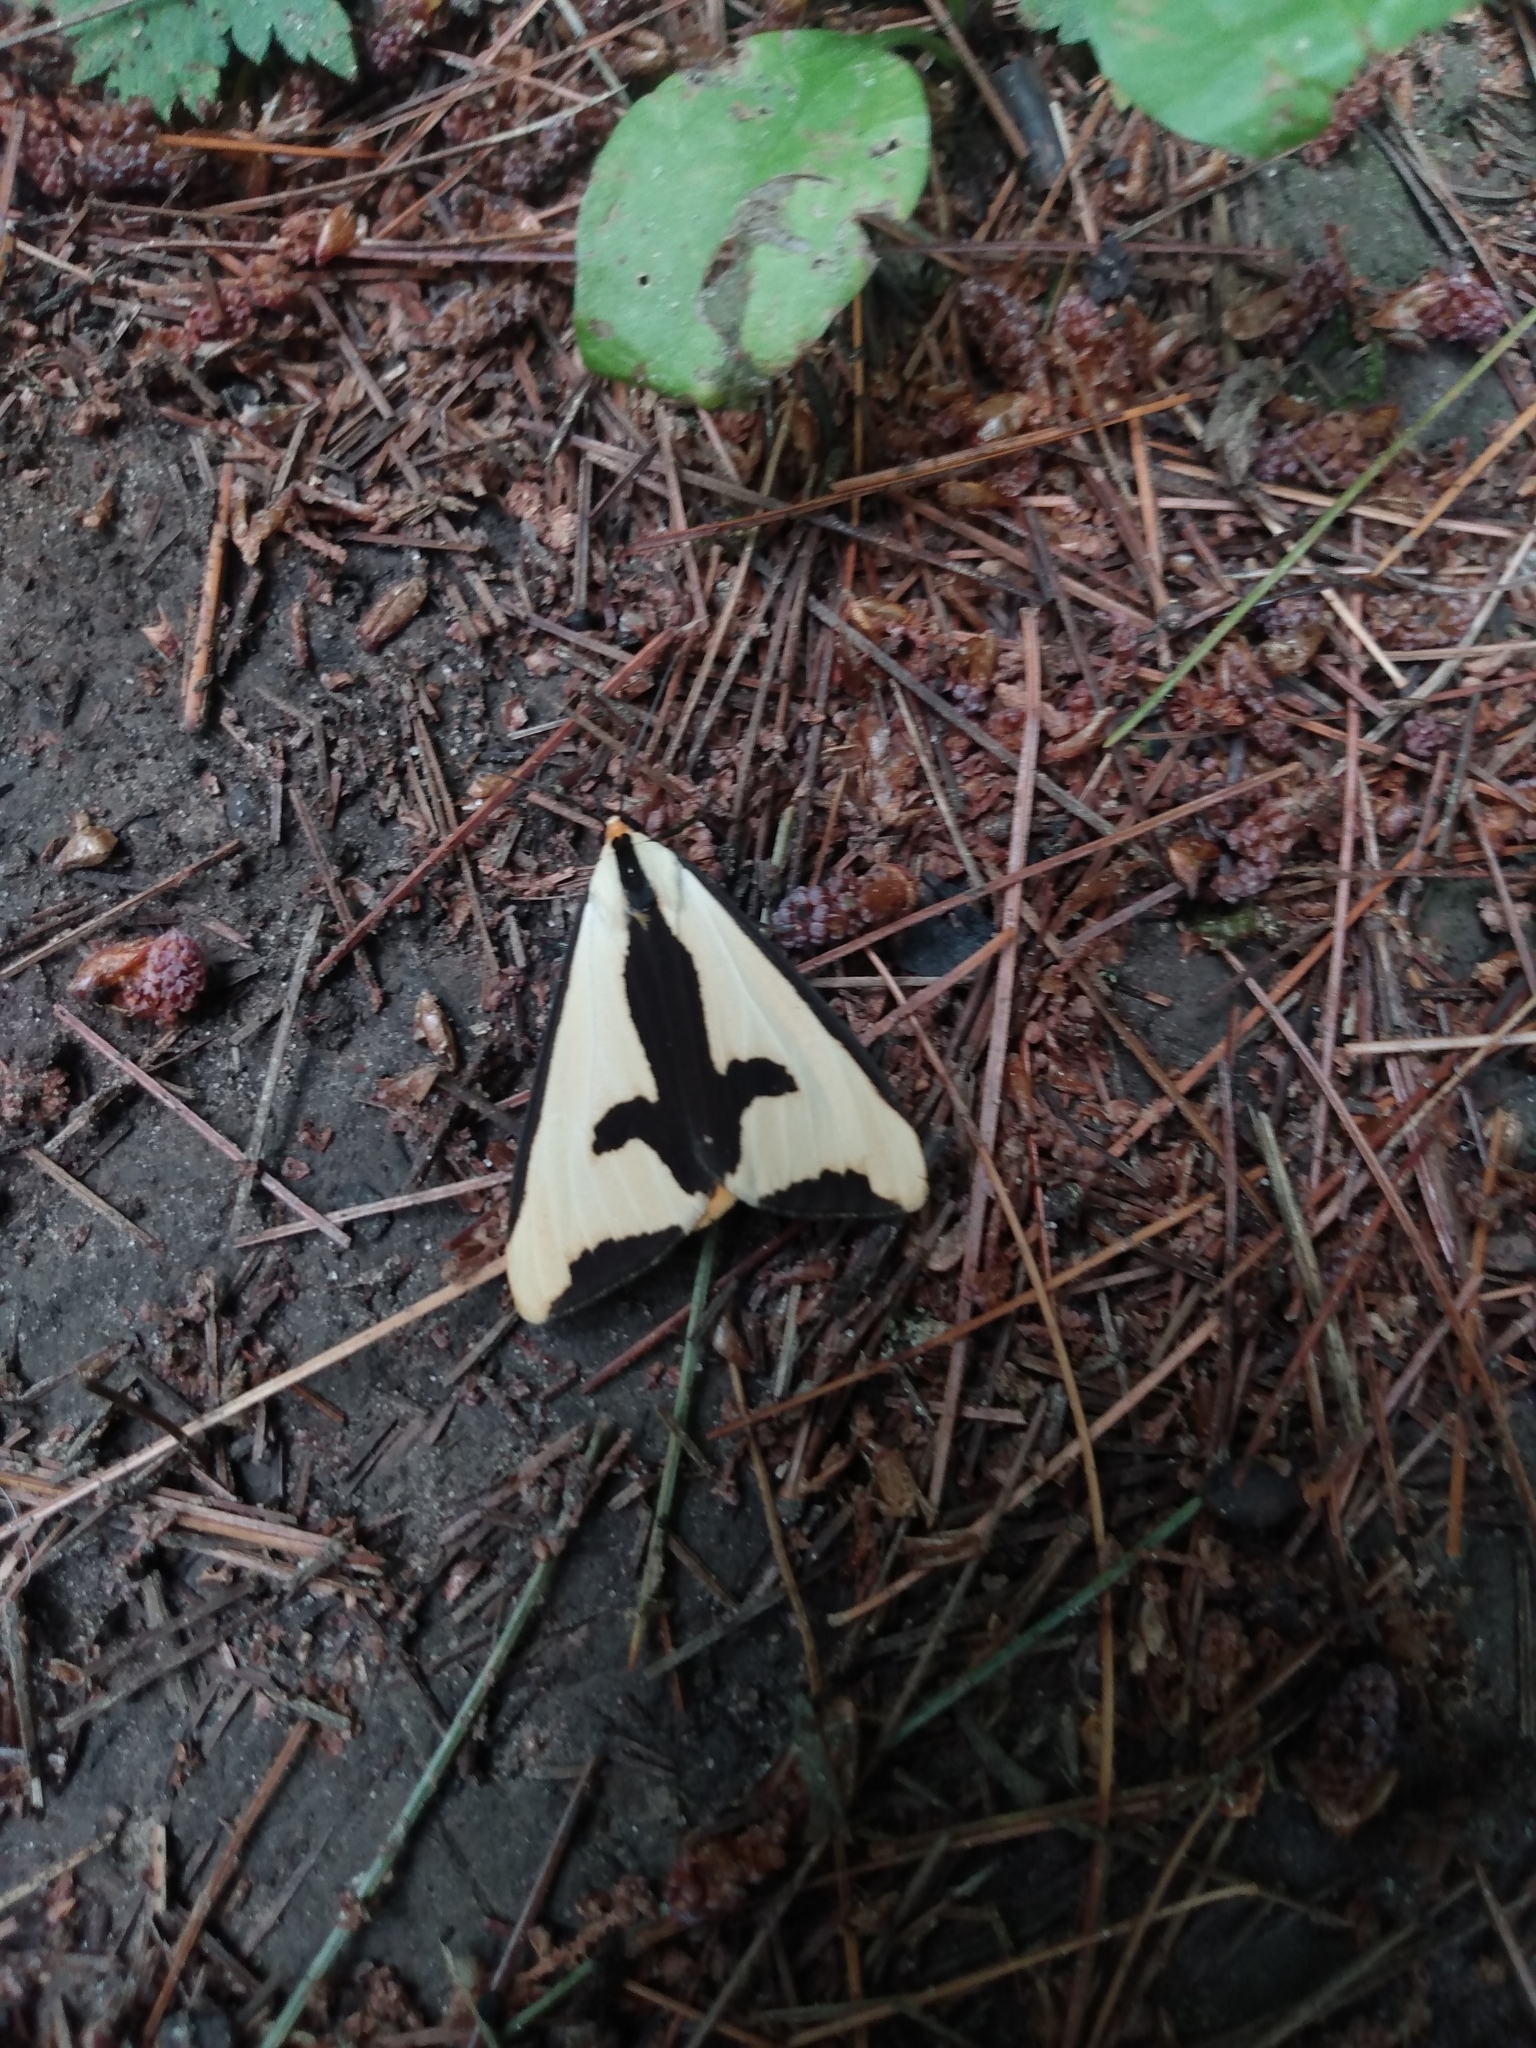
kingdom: Animalia
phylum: Arthropoda
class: Insecta
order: Lepidoptera
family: Erebidae
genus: Haploa
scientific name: Haploa clymene
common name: Clymene moth
